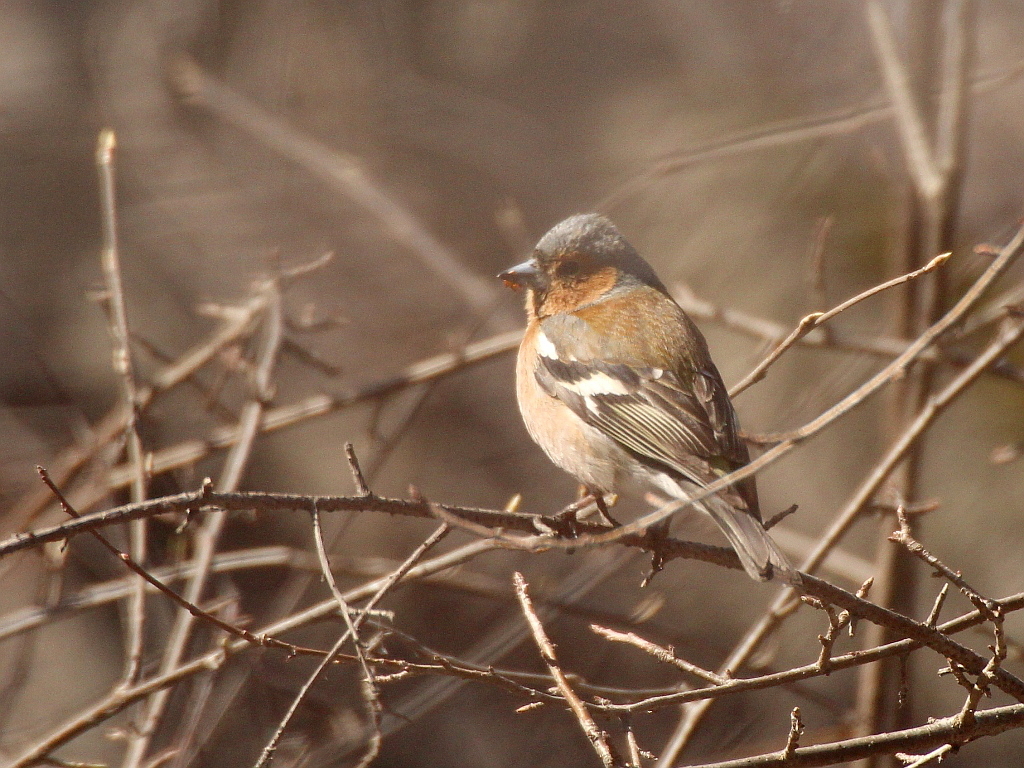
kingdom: Animalia
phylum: Chordata
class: Aves
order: Passeriformes
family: Fringillidae
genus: Fringilla
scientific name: Fringilla coelebs
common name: Common chaffinch
